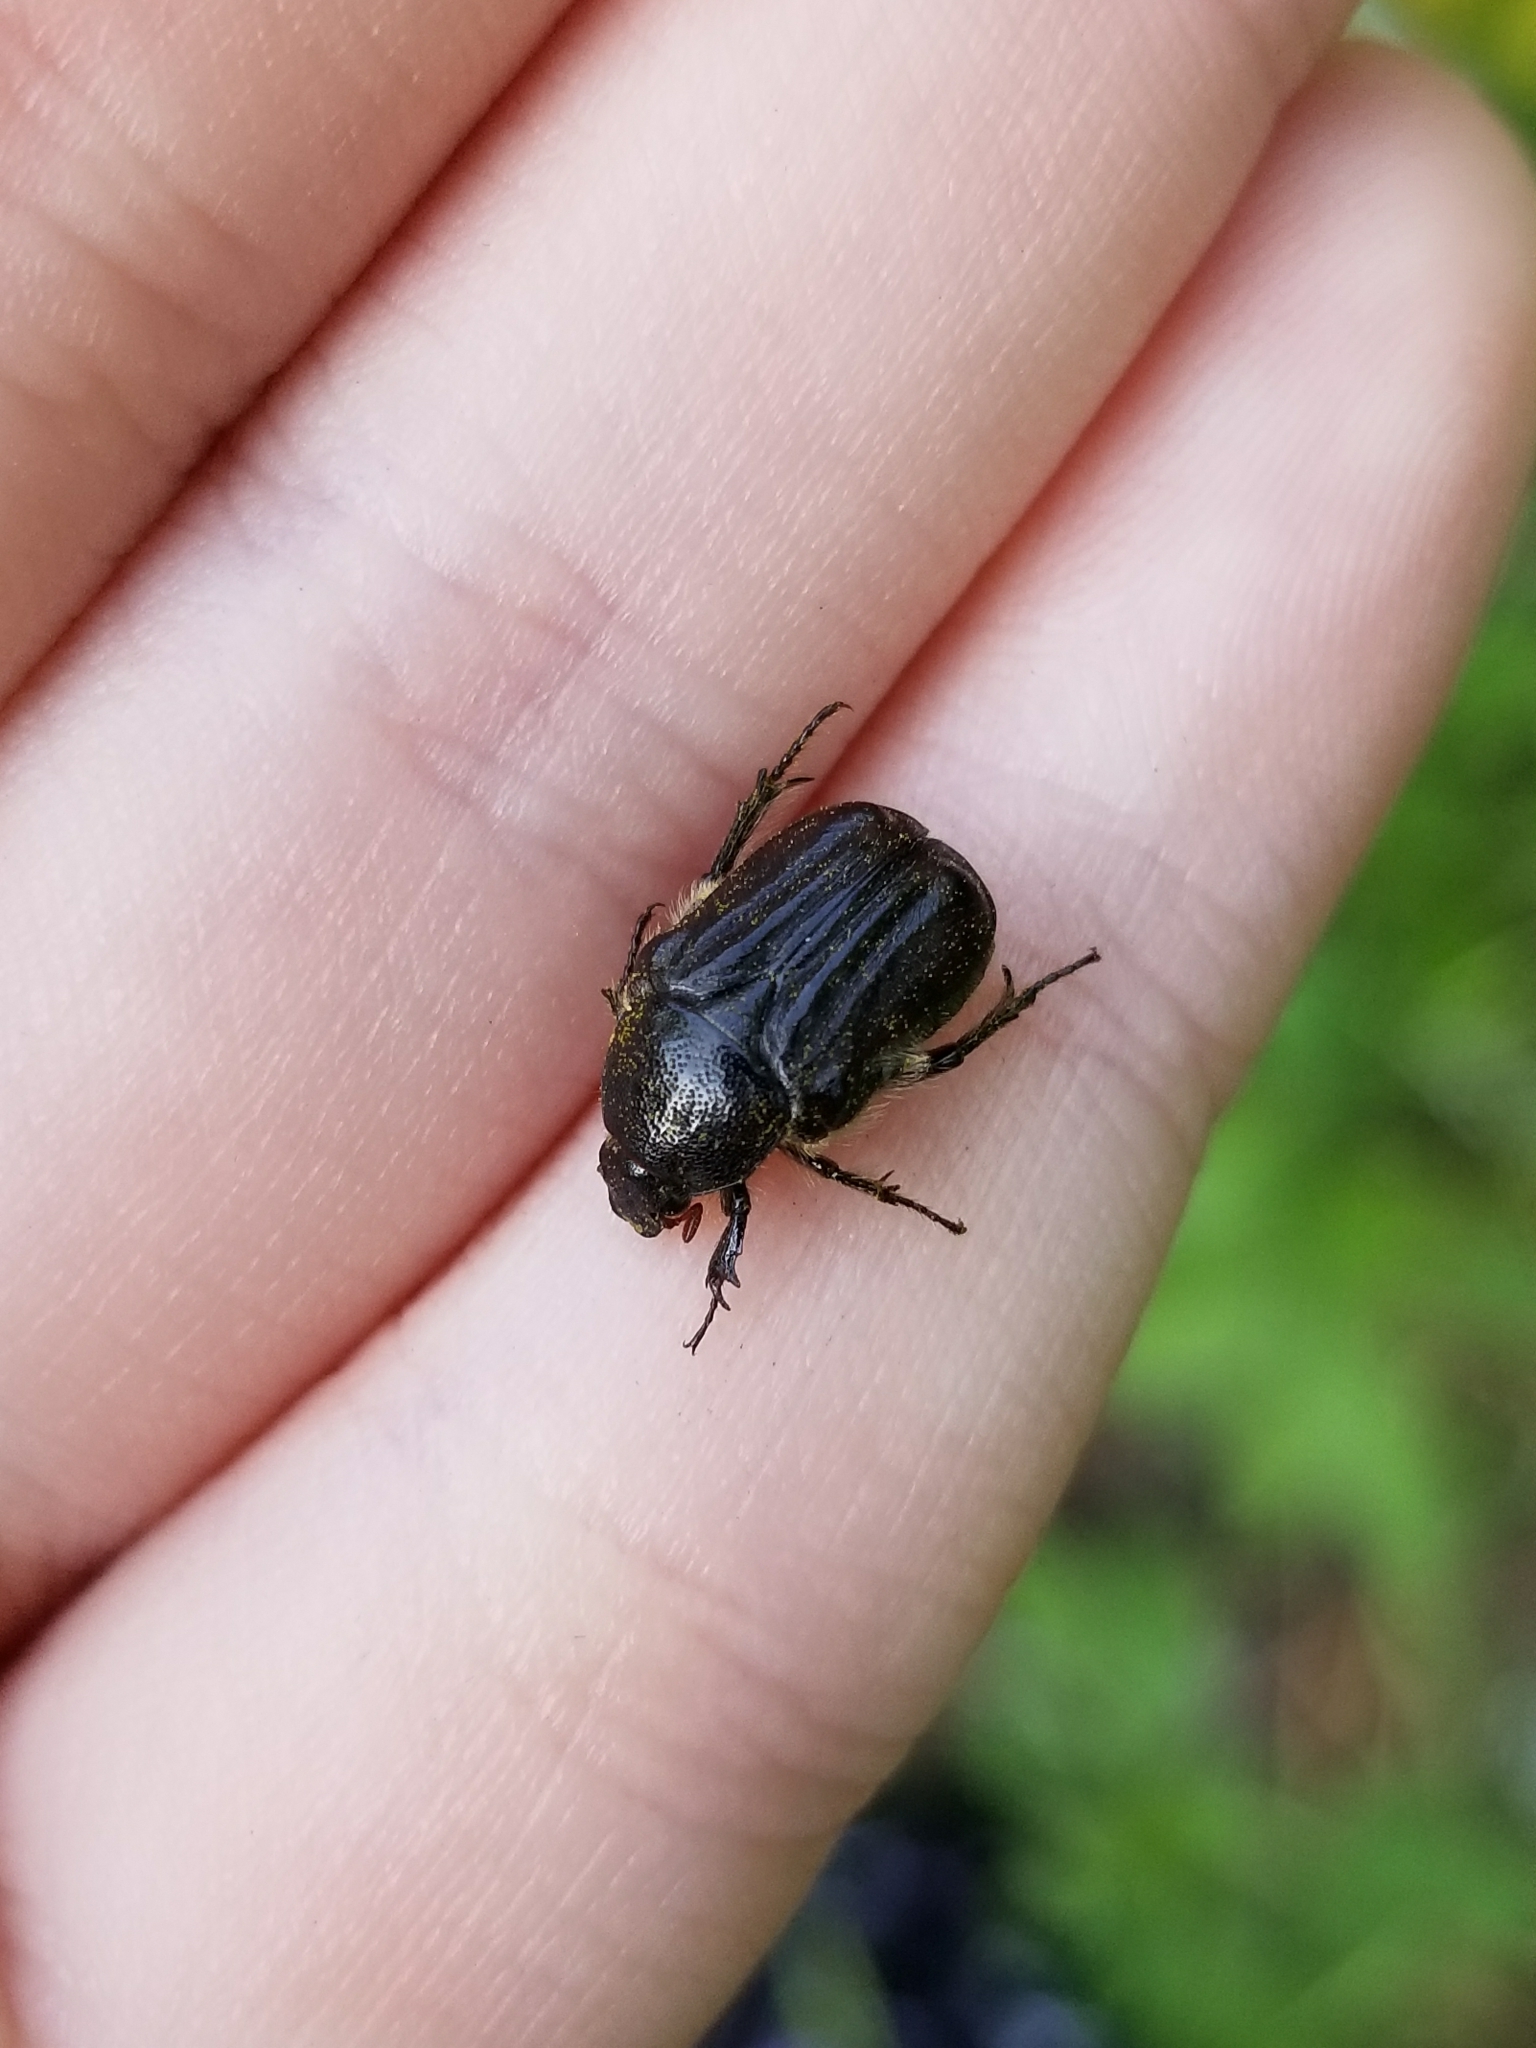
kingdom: Animalia
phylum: Arthropoda
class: Insecta
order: Coleoptera
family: Scarabaeidae
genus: Euphoria
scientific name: Euphoria kernii
